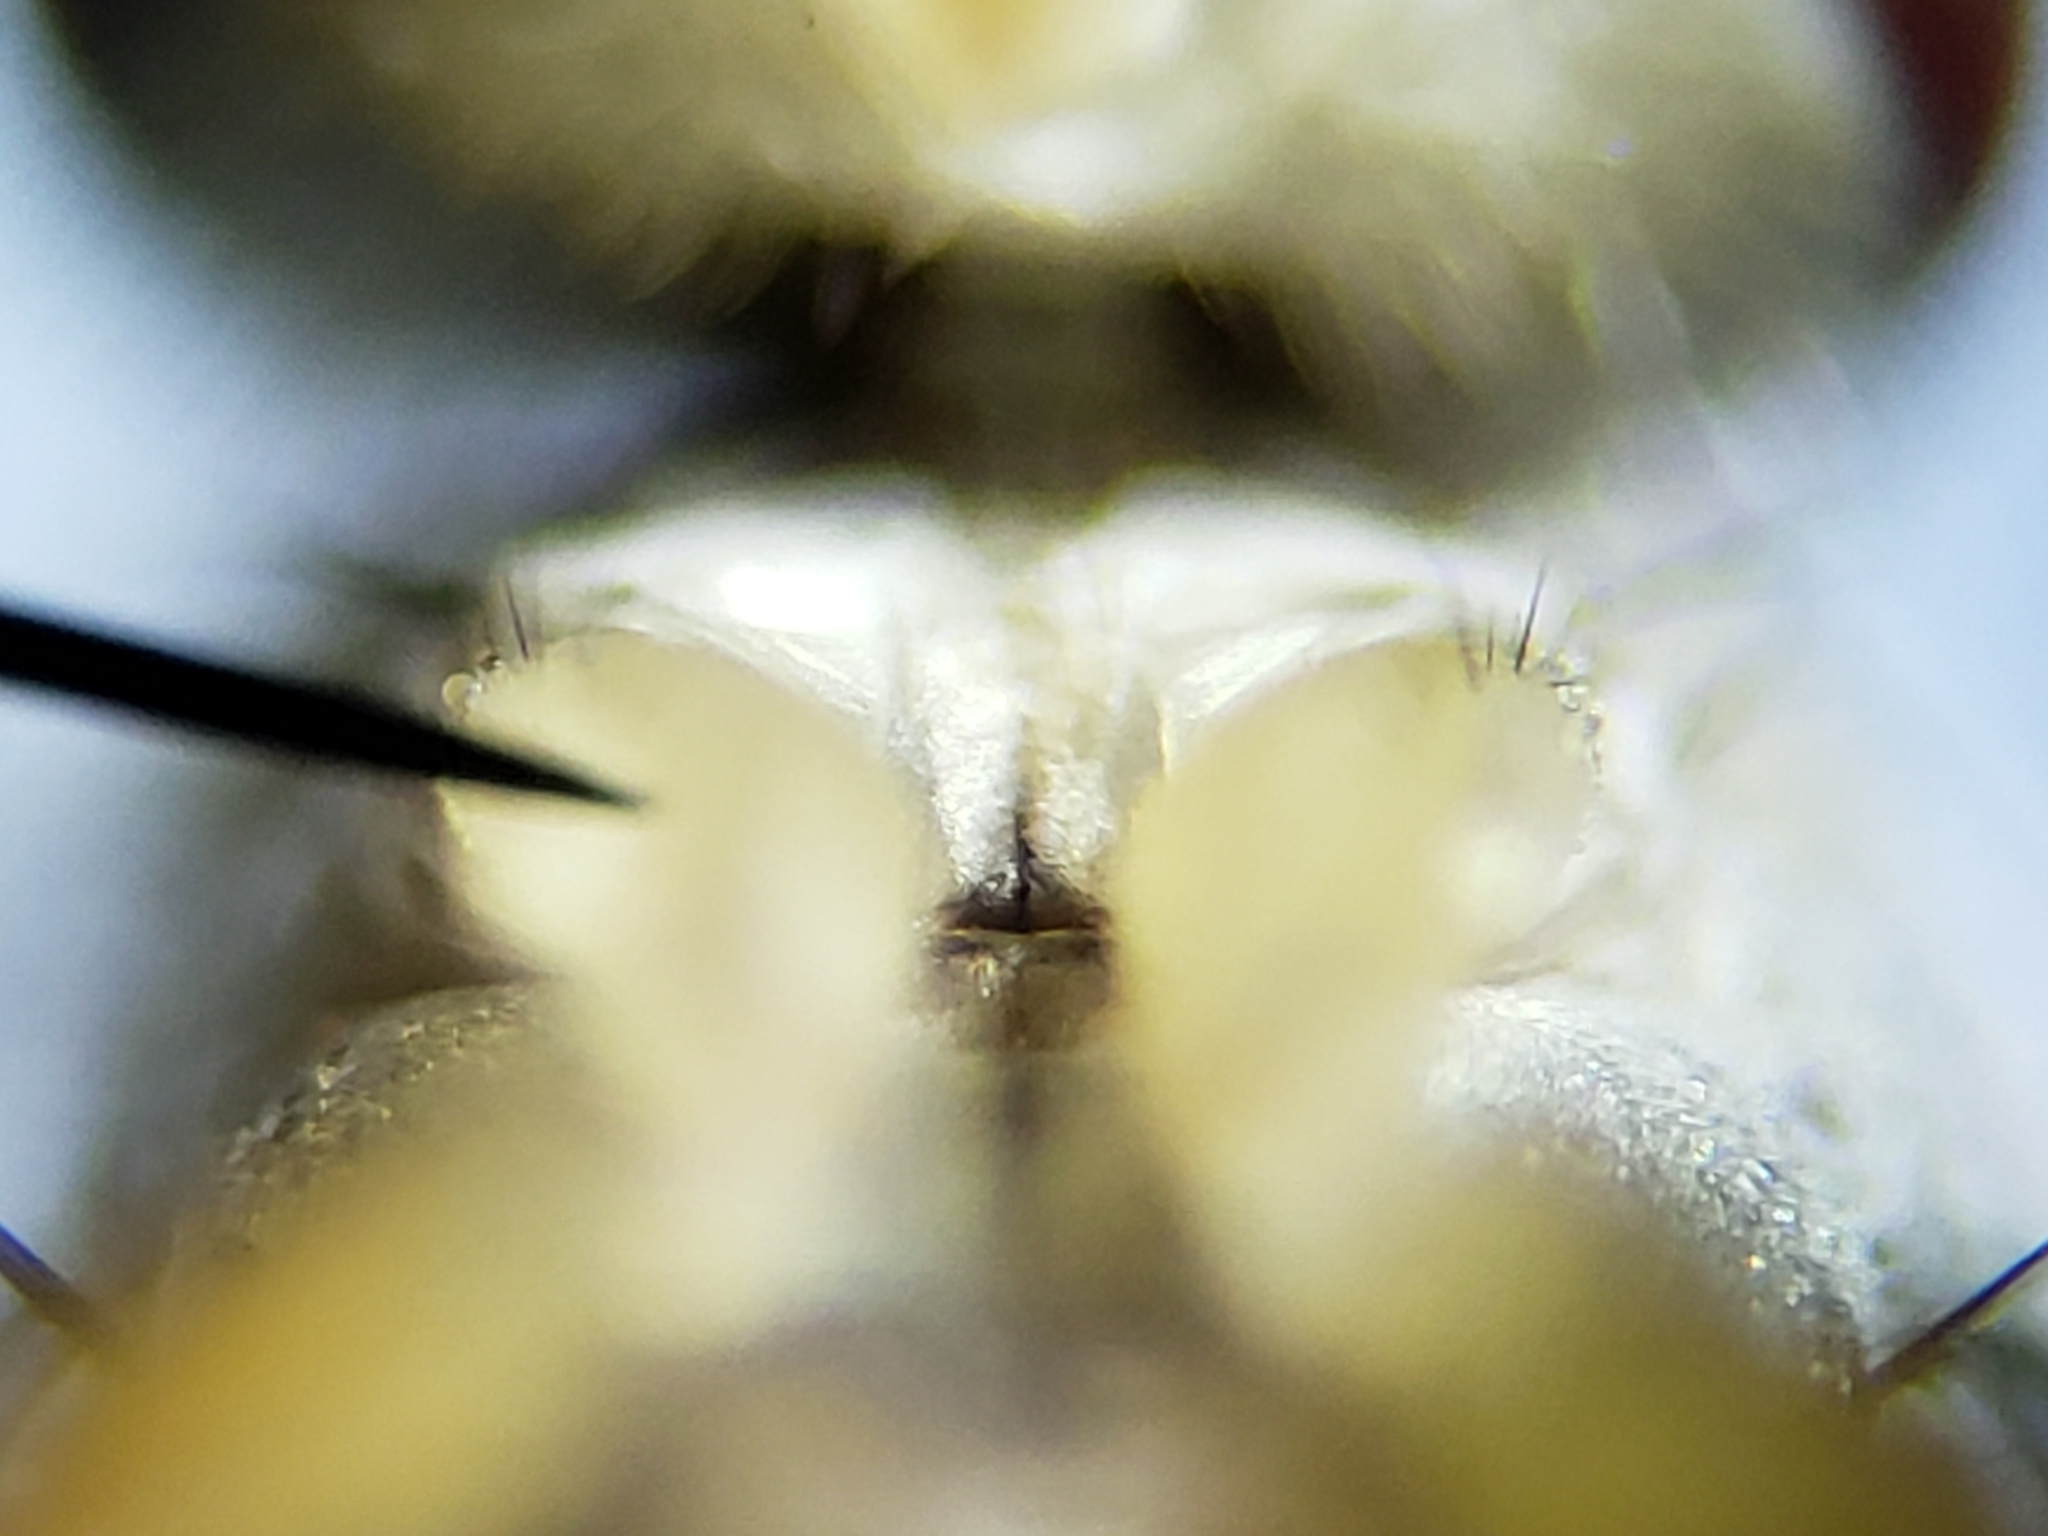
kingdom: Animalia
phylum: Arthropoda
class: Insecta
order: Diptera
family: Tachinidae
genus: Crocinosoma
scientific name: Crocinosoma cornuale
